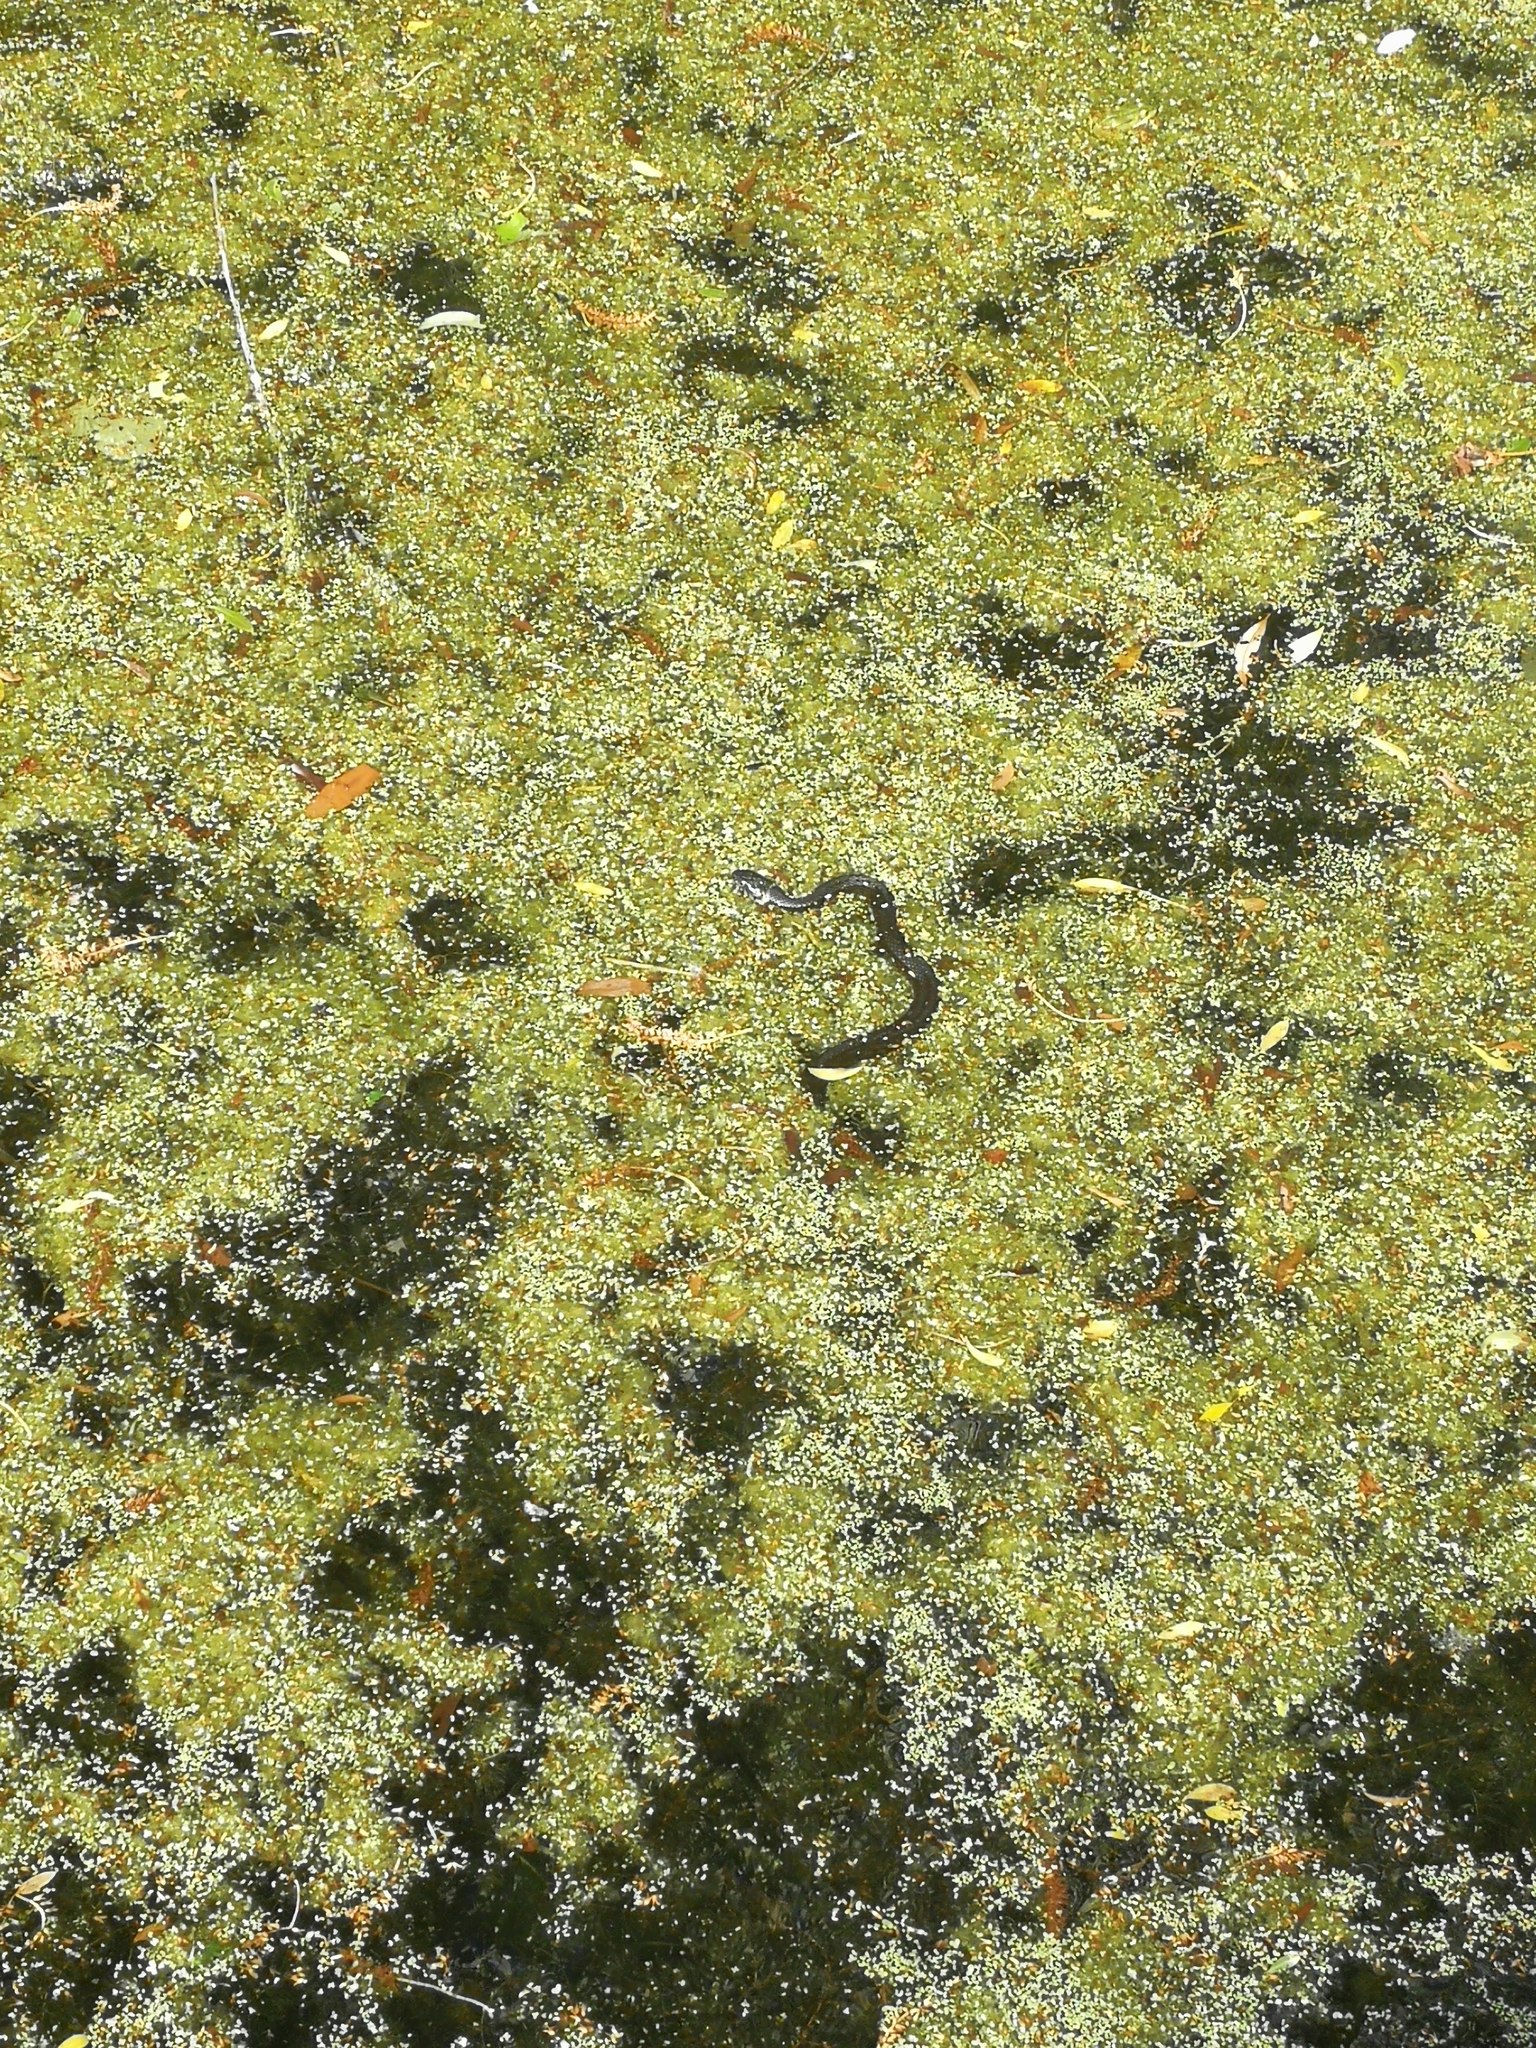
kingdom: Animalia
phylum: Chordata
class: Squamata
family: Colubridae
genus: Natrix
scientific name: Natrix helvetica
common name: Banded grass snake
